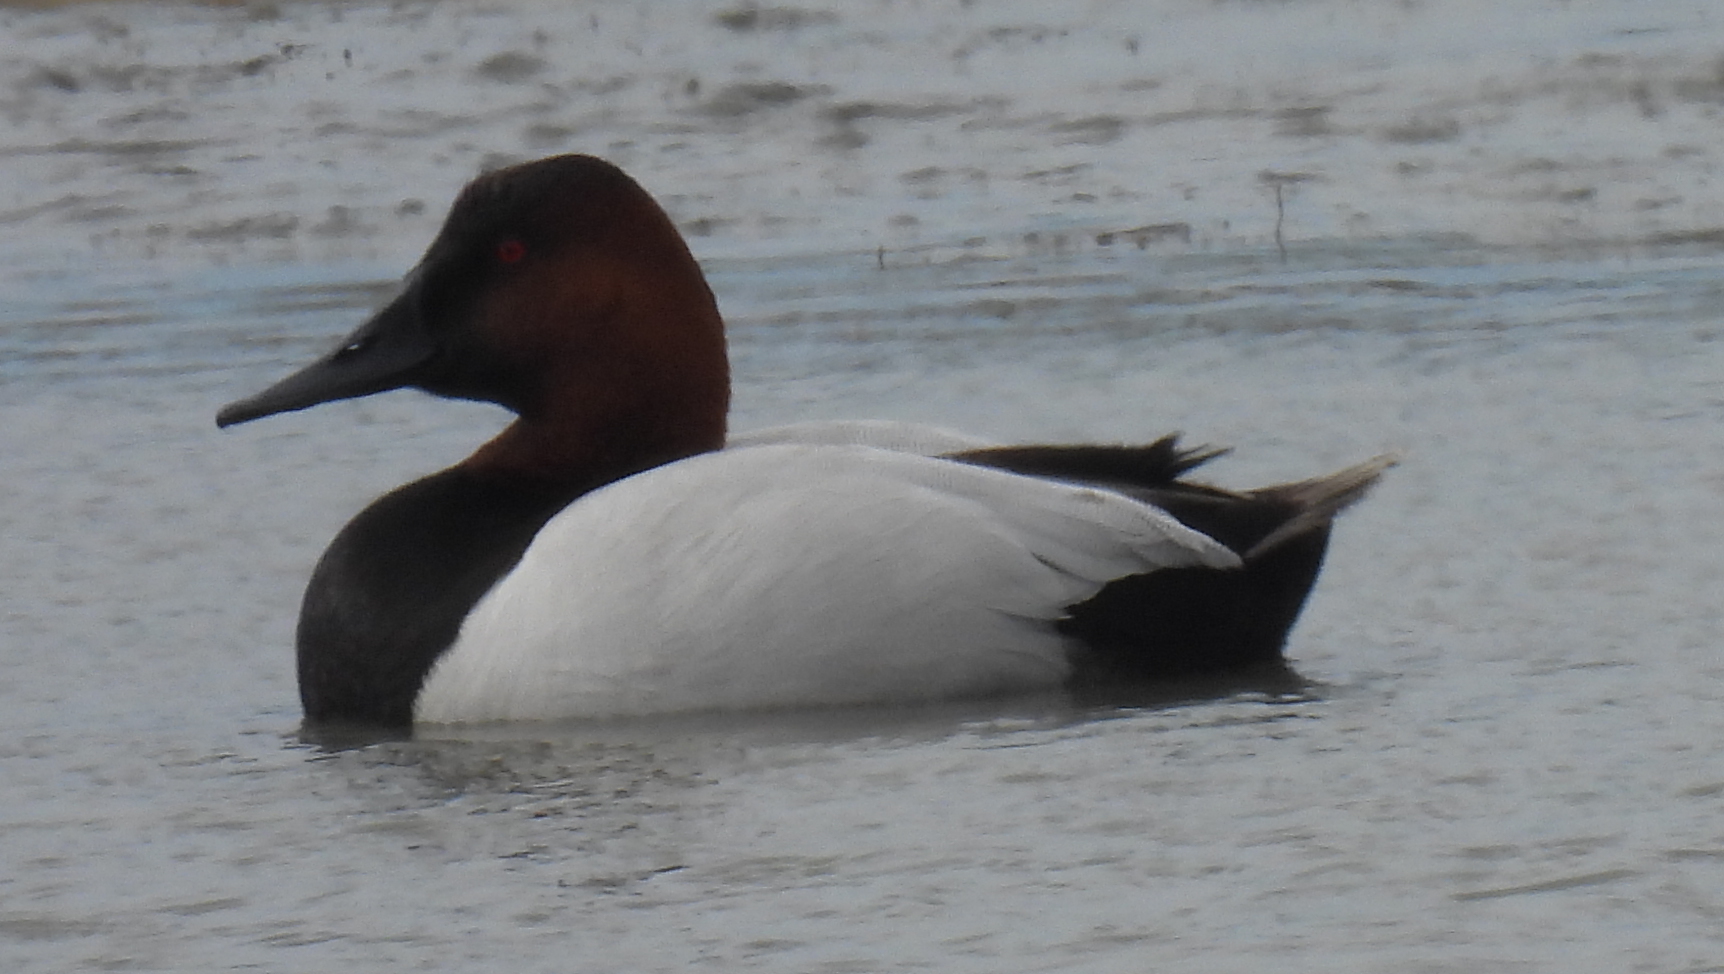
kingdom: Animalia
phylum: Chordata
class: Aves
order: Anseriformes
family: Anatidae
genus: Aythya
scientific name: Aythya valisineria
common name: Canvasback
